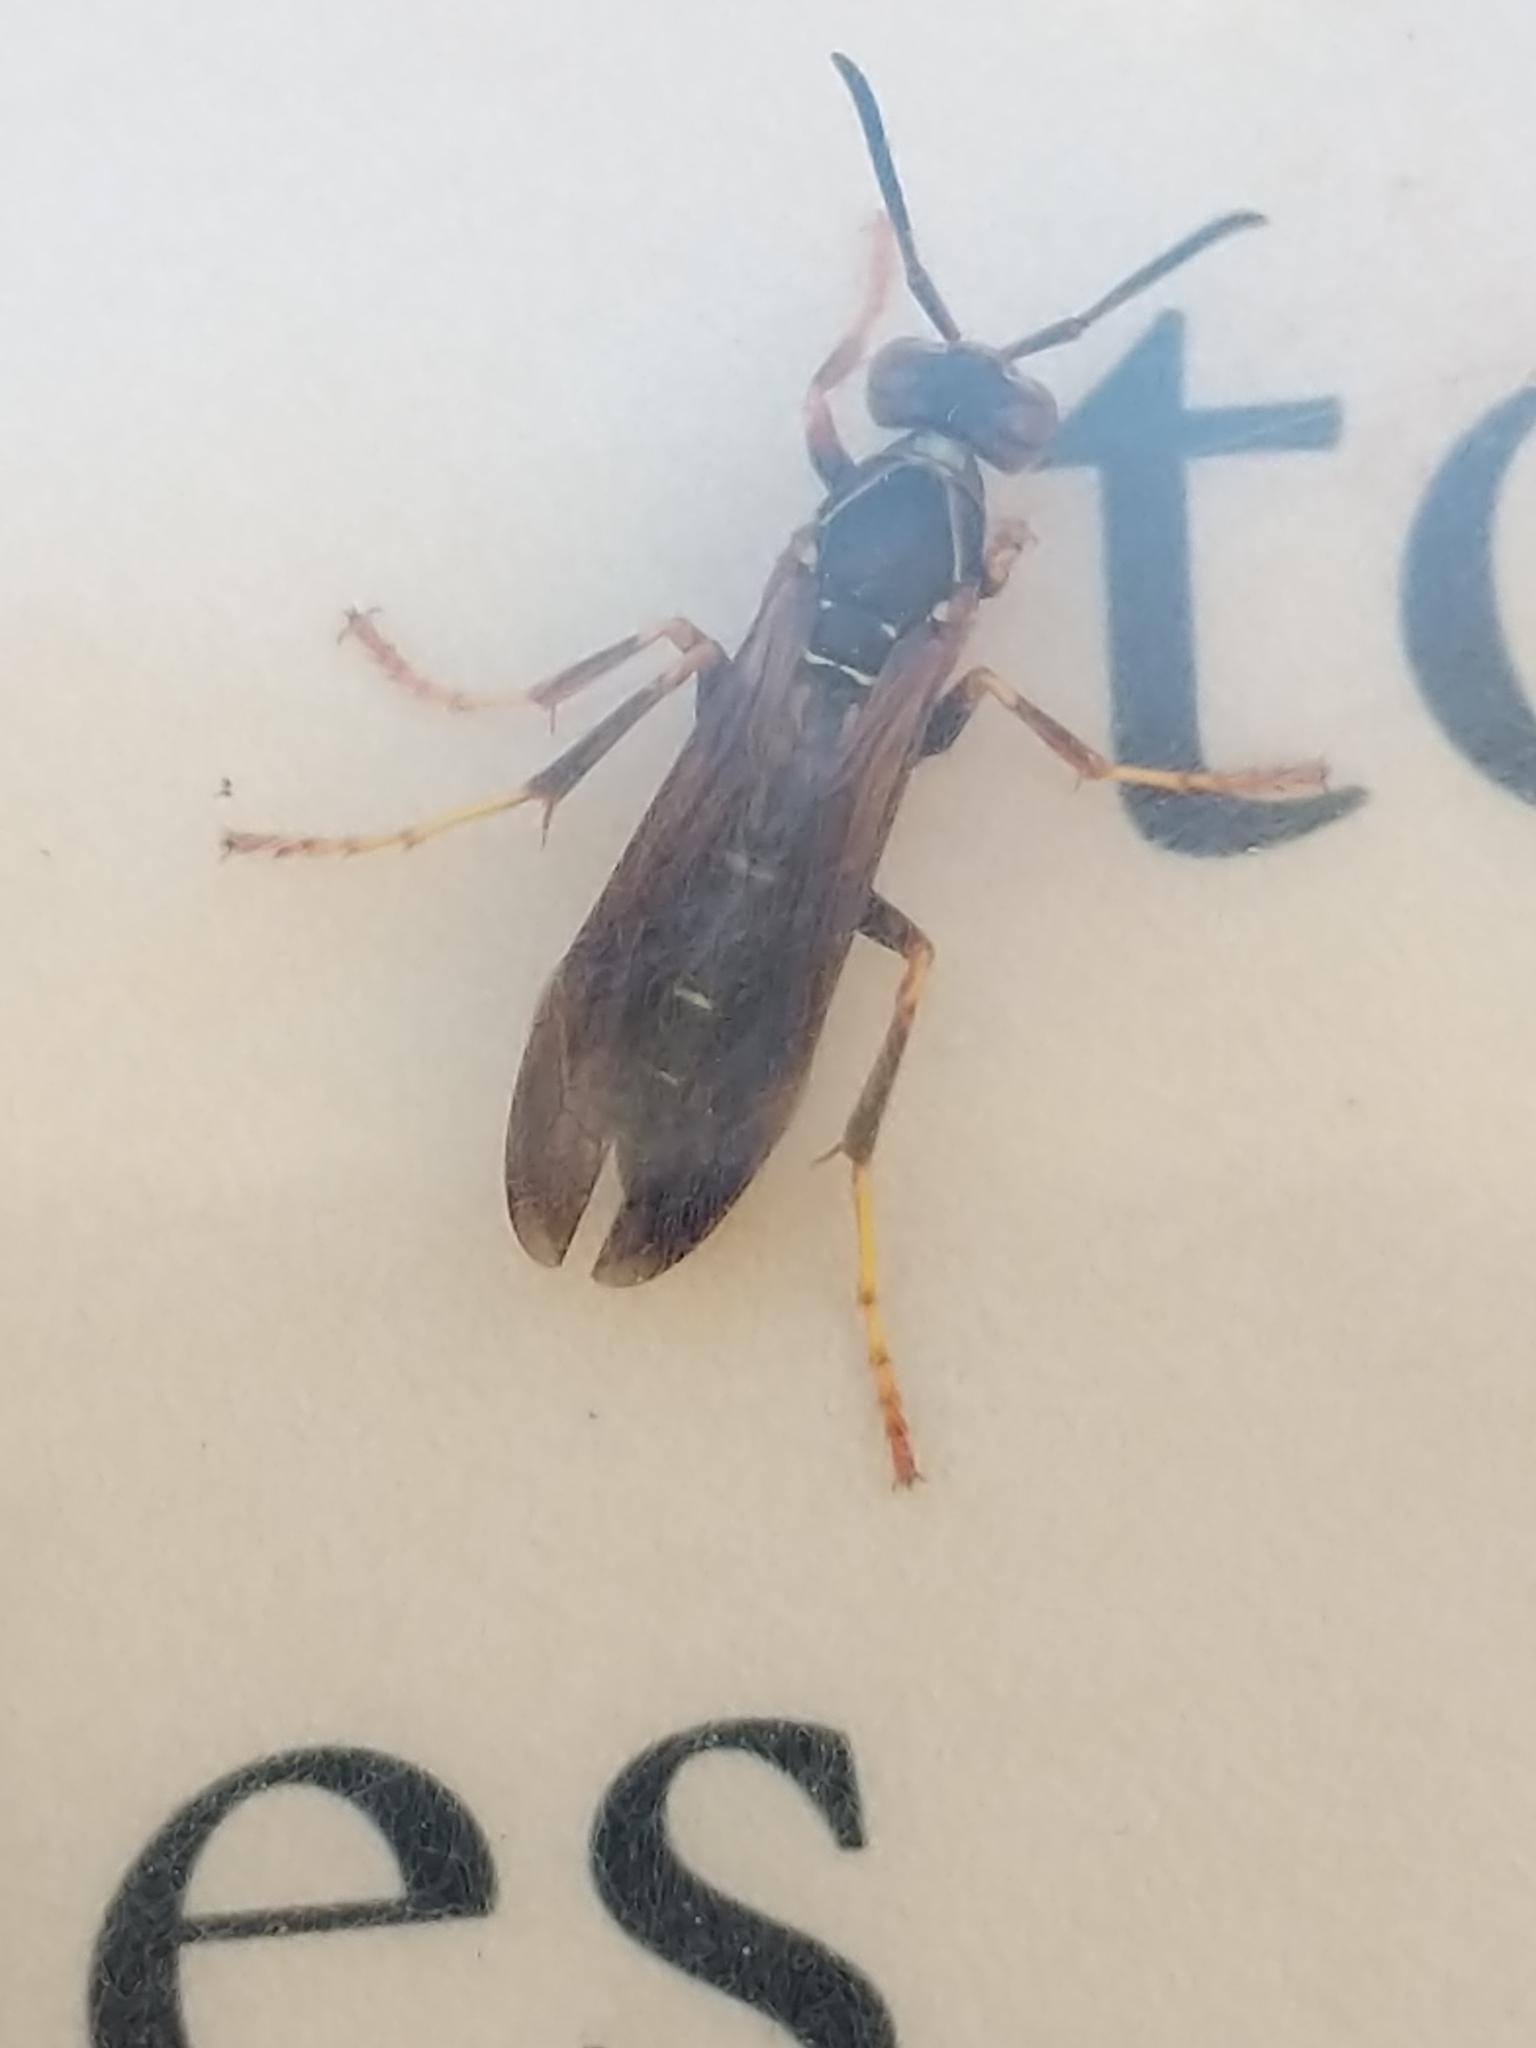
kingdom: Animalia
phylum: Arthropoda
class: Insecta
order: Hymenoptera
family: Eumenidae
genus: Polistes
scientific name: Polistes fuscatus
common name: Dark paper wasp
